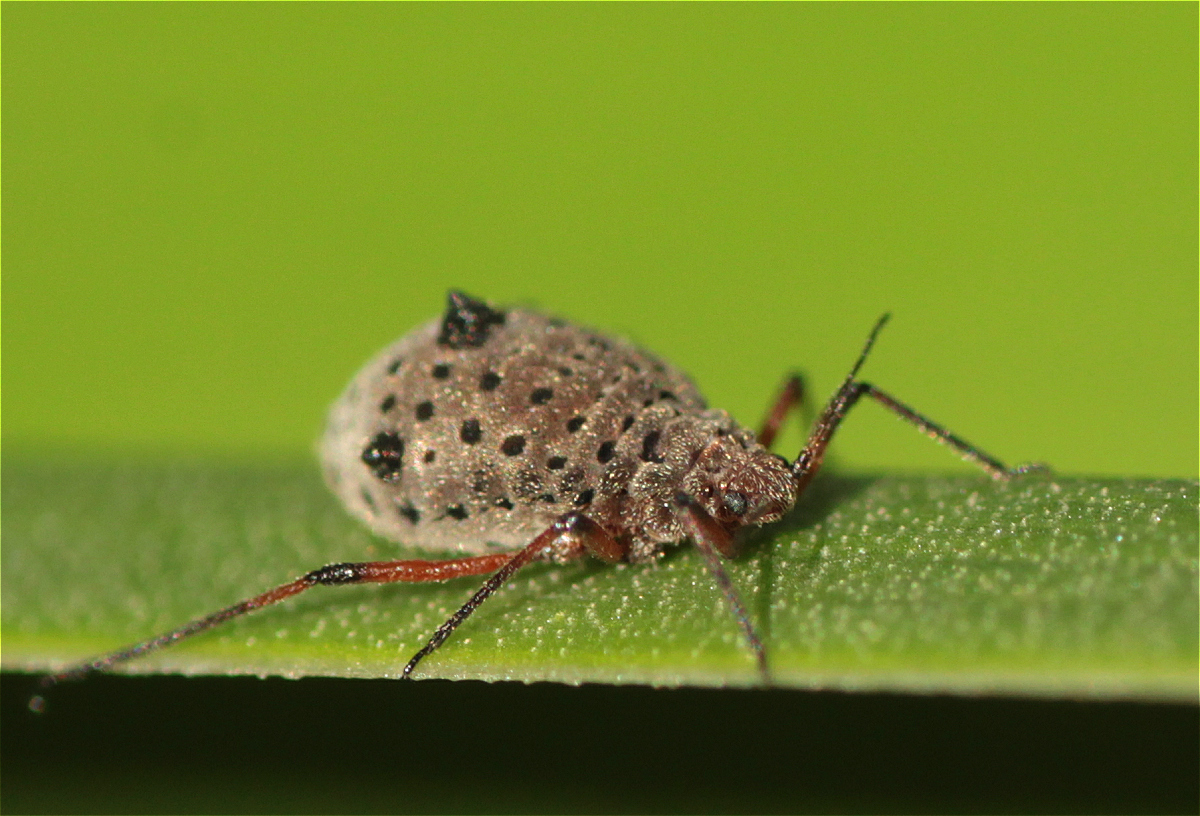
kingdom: Animalia
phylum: Arthropoda
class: Insecta
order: Hemiptera
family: Aphididae
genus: Tuberolachnus
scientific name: Tuberolachnus salignus
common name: Giant willow aphid
